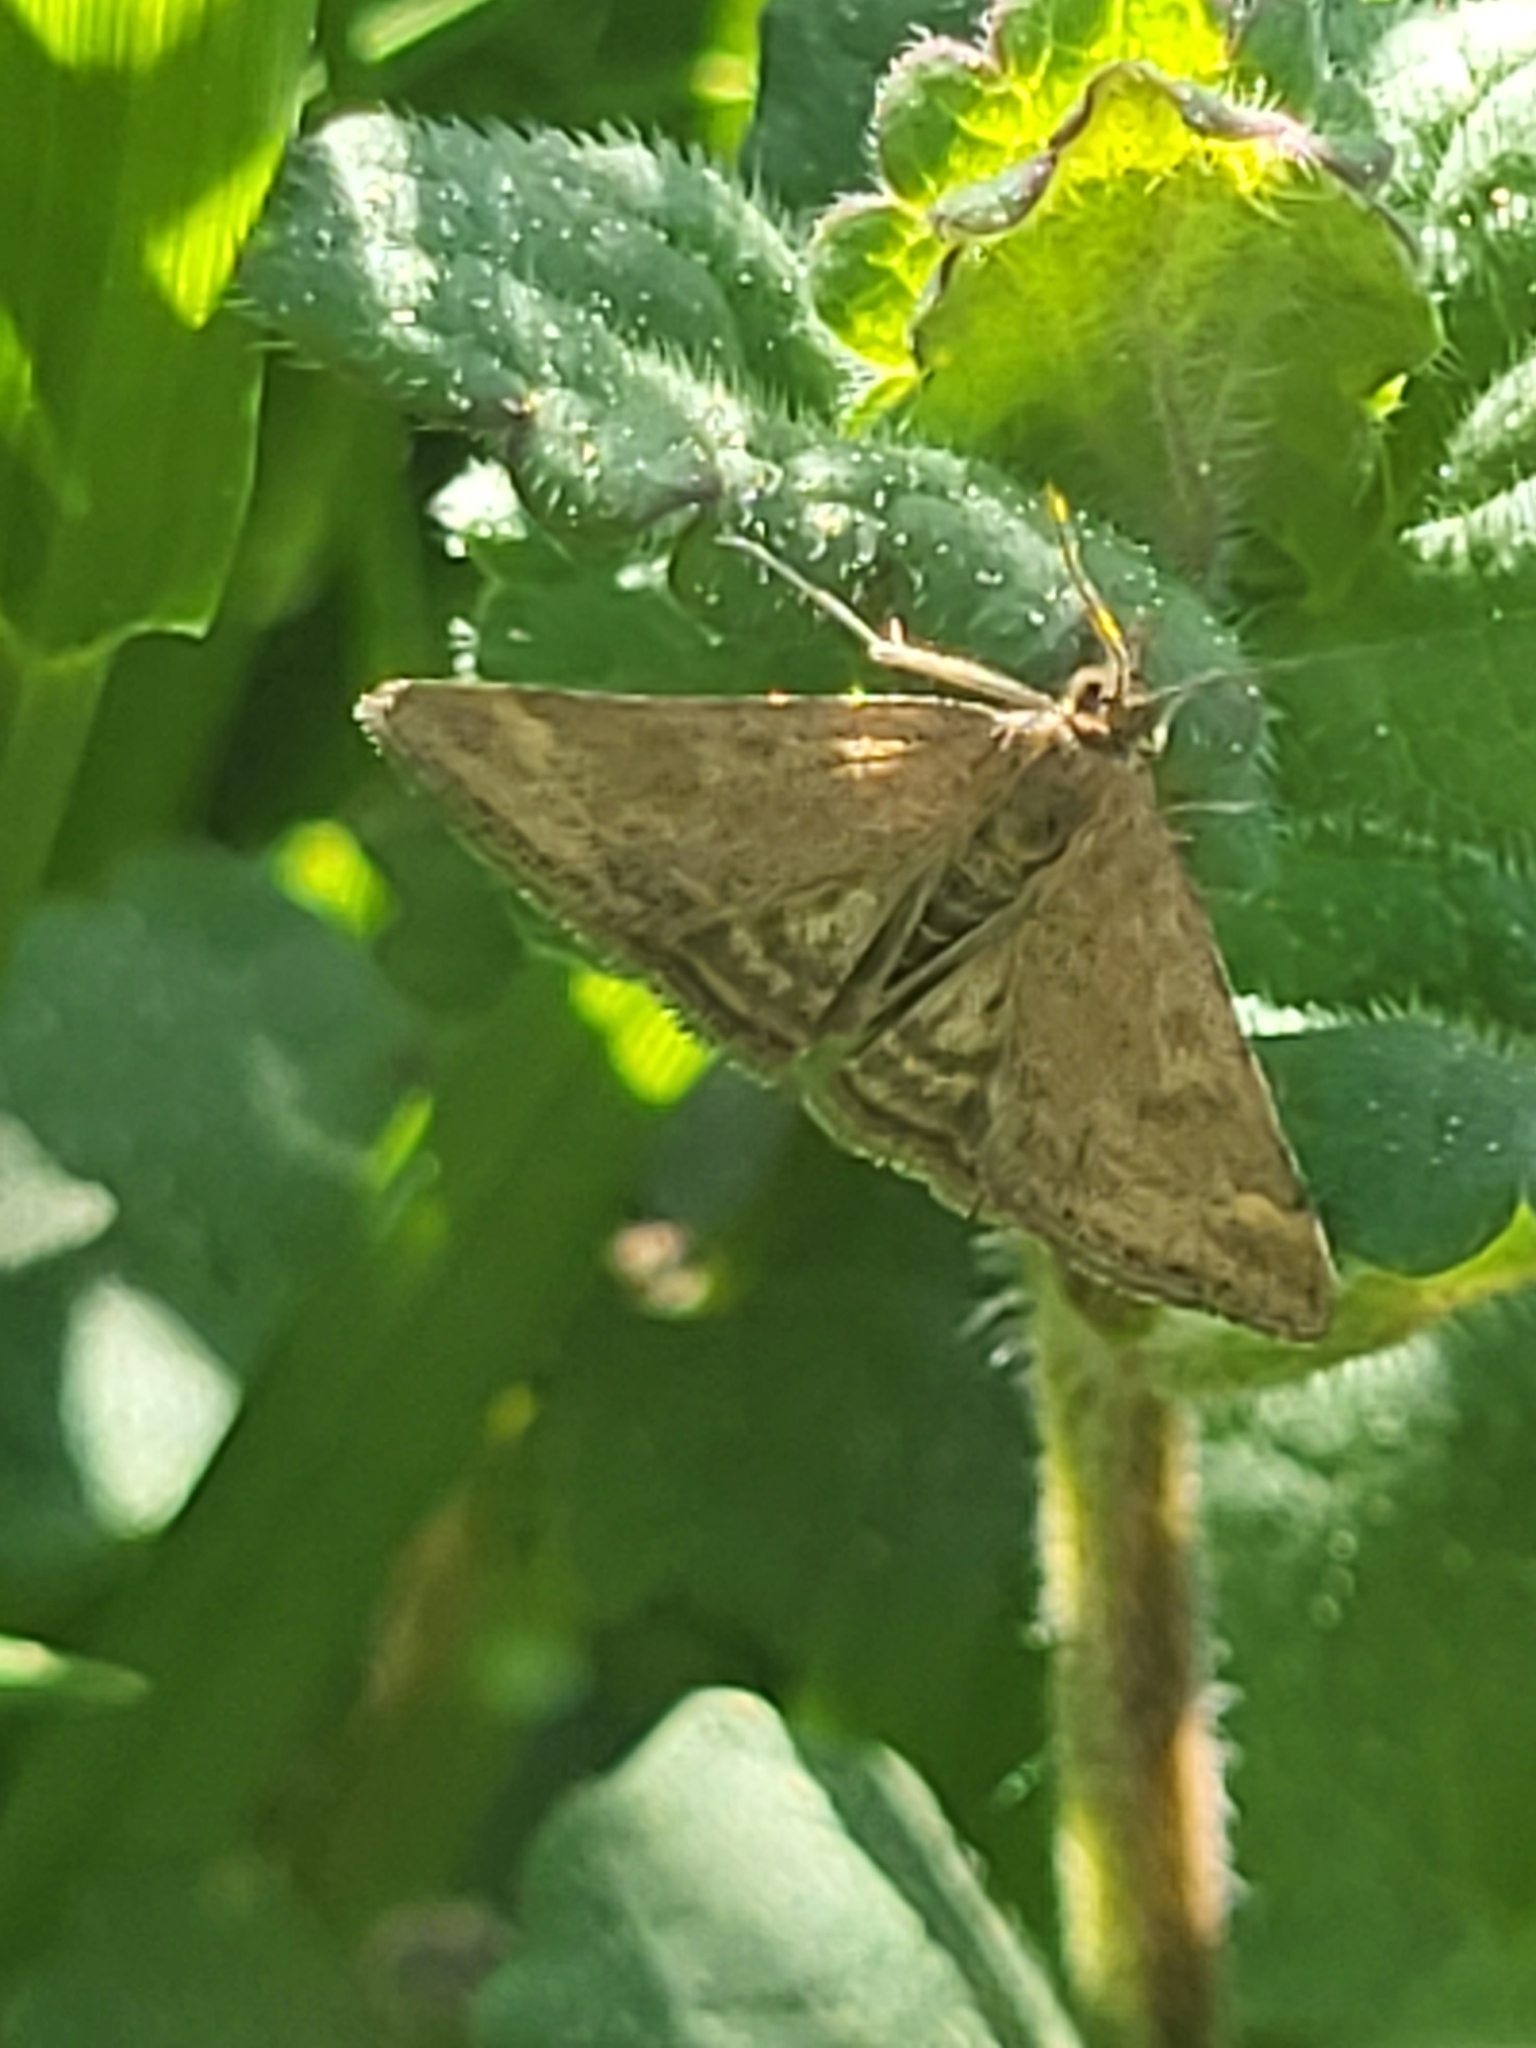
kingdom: Animalia
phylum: Arthropoda
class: Insecta
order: Lepidoptera
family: Crambidae
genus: Pyrausta
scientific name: Pyrausta despicata
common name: Straw-barred pearl
